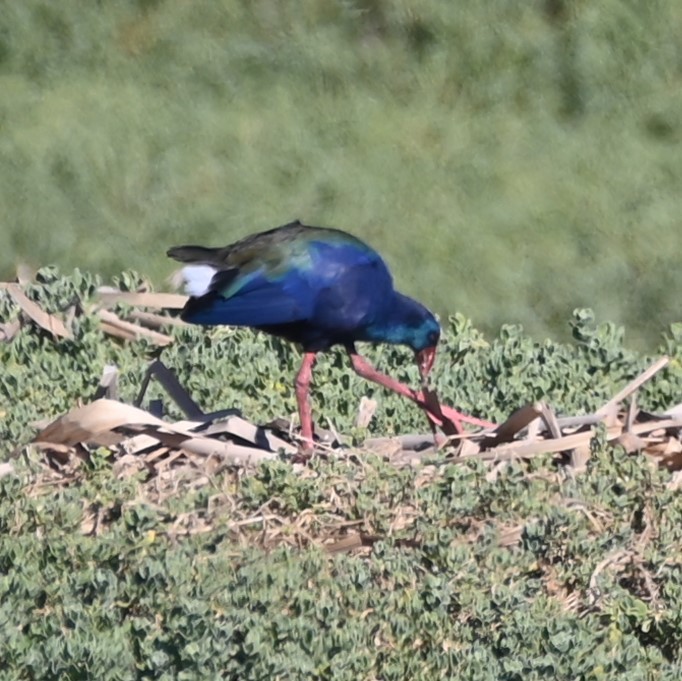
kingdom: Animalia
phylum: Chordata
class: Aves
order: Gruiformes
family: Rallidae
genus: Porphyrio
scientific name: Porphyrio porphyrio
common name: Purple swamphen
